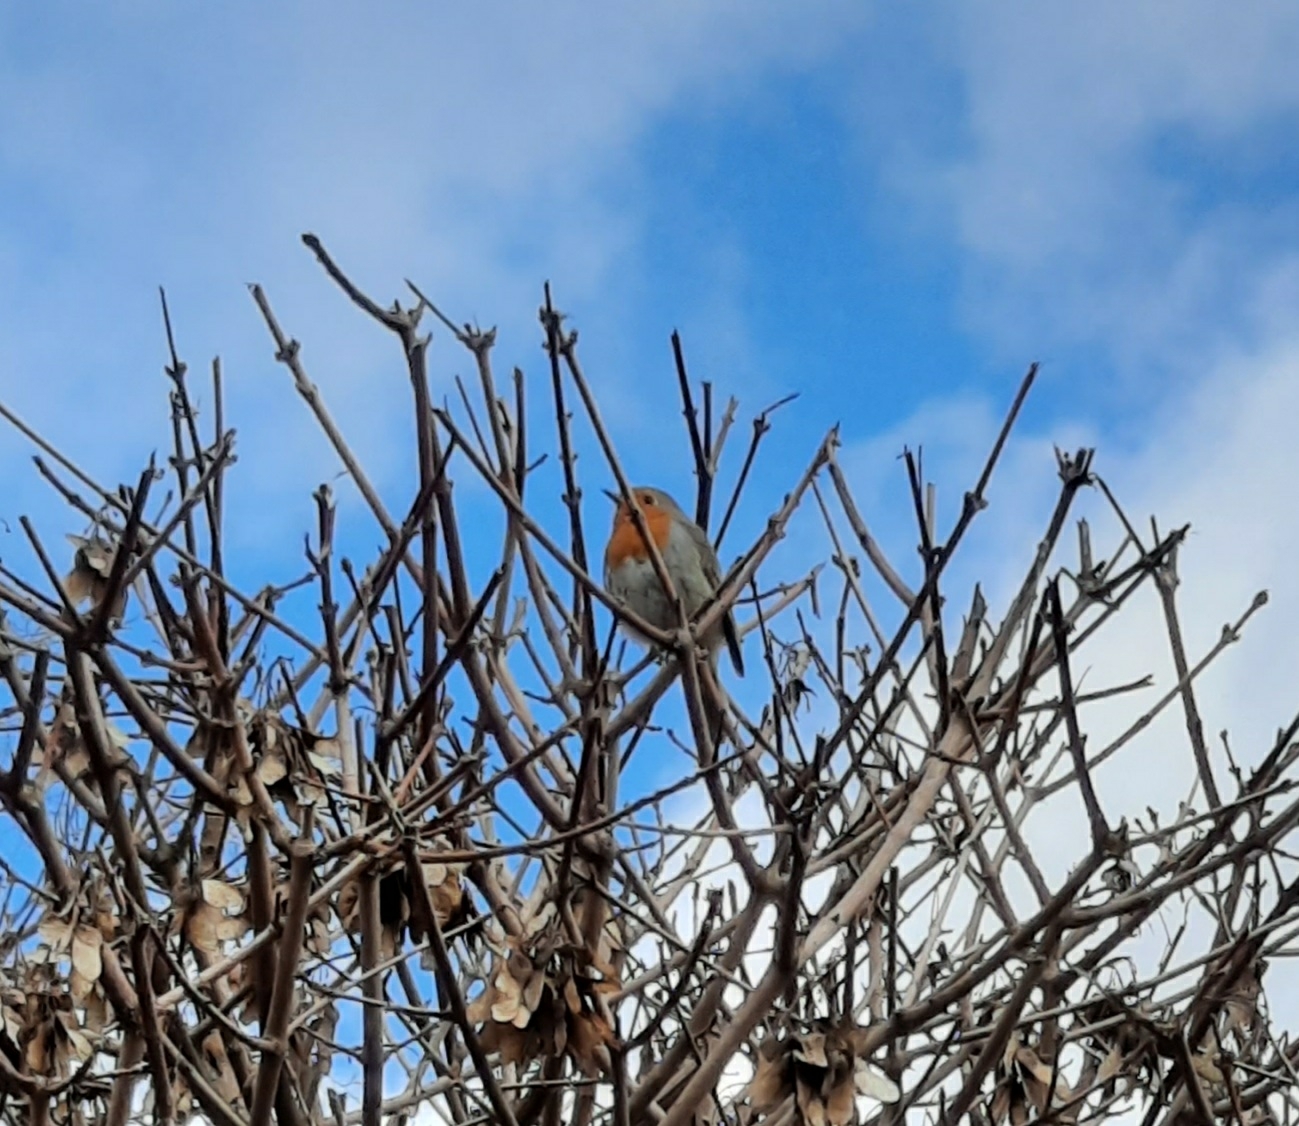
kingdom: Animalia
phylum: Chordata
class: Aves
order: Passeriformes
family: Muscicapidae
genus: Erithacus
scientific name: Erithacus rubecula
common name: European robin
